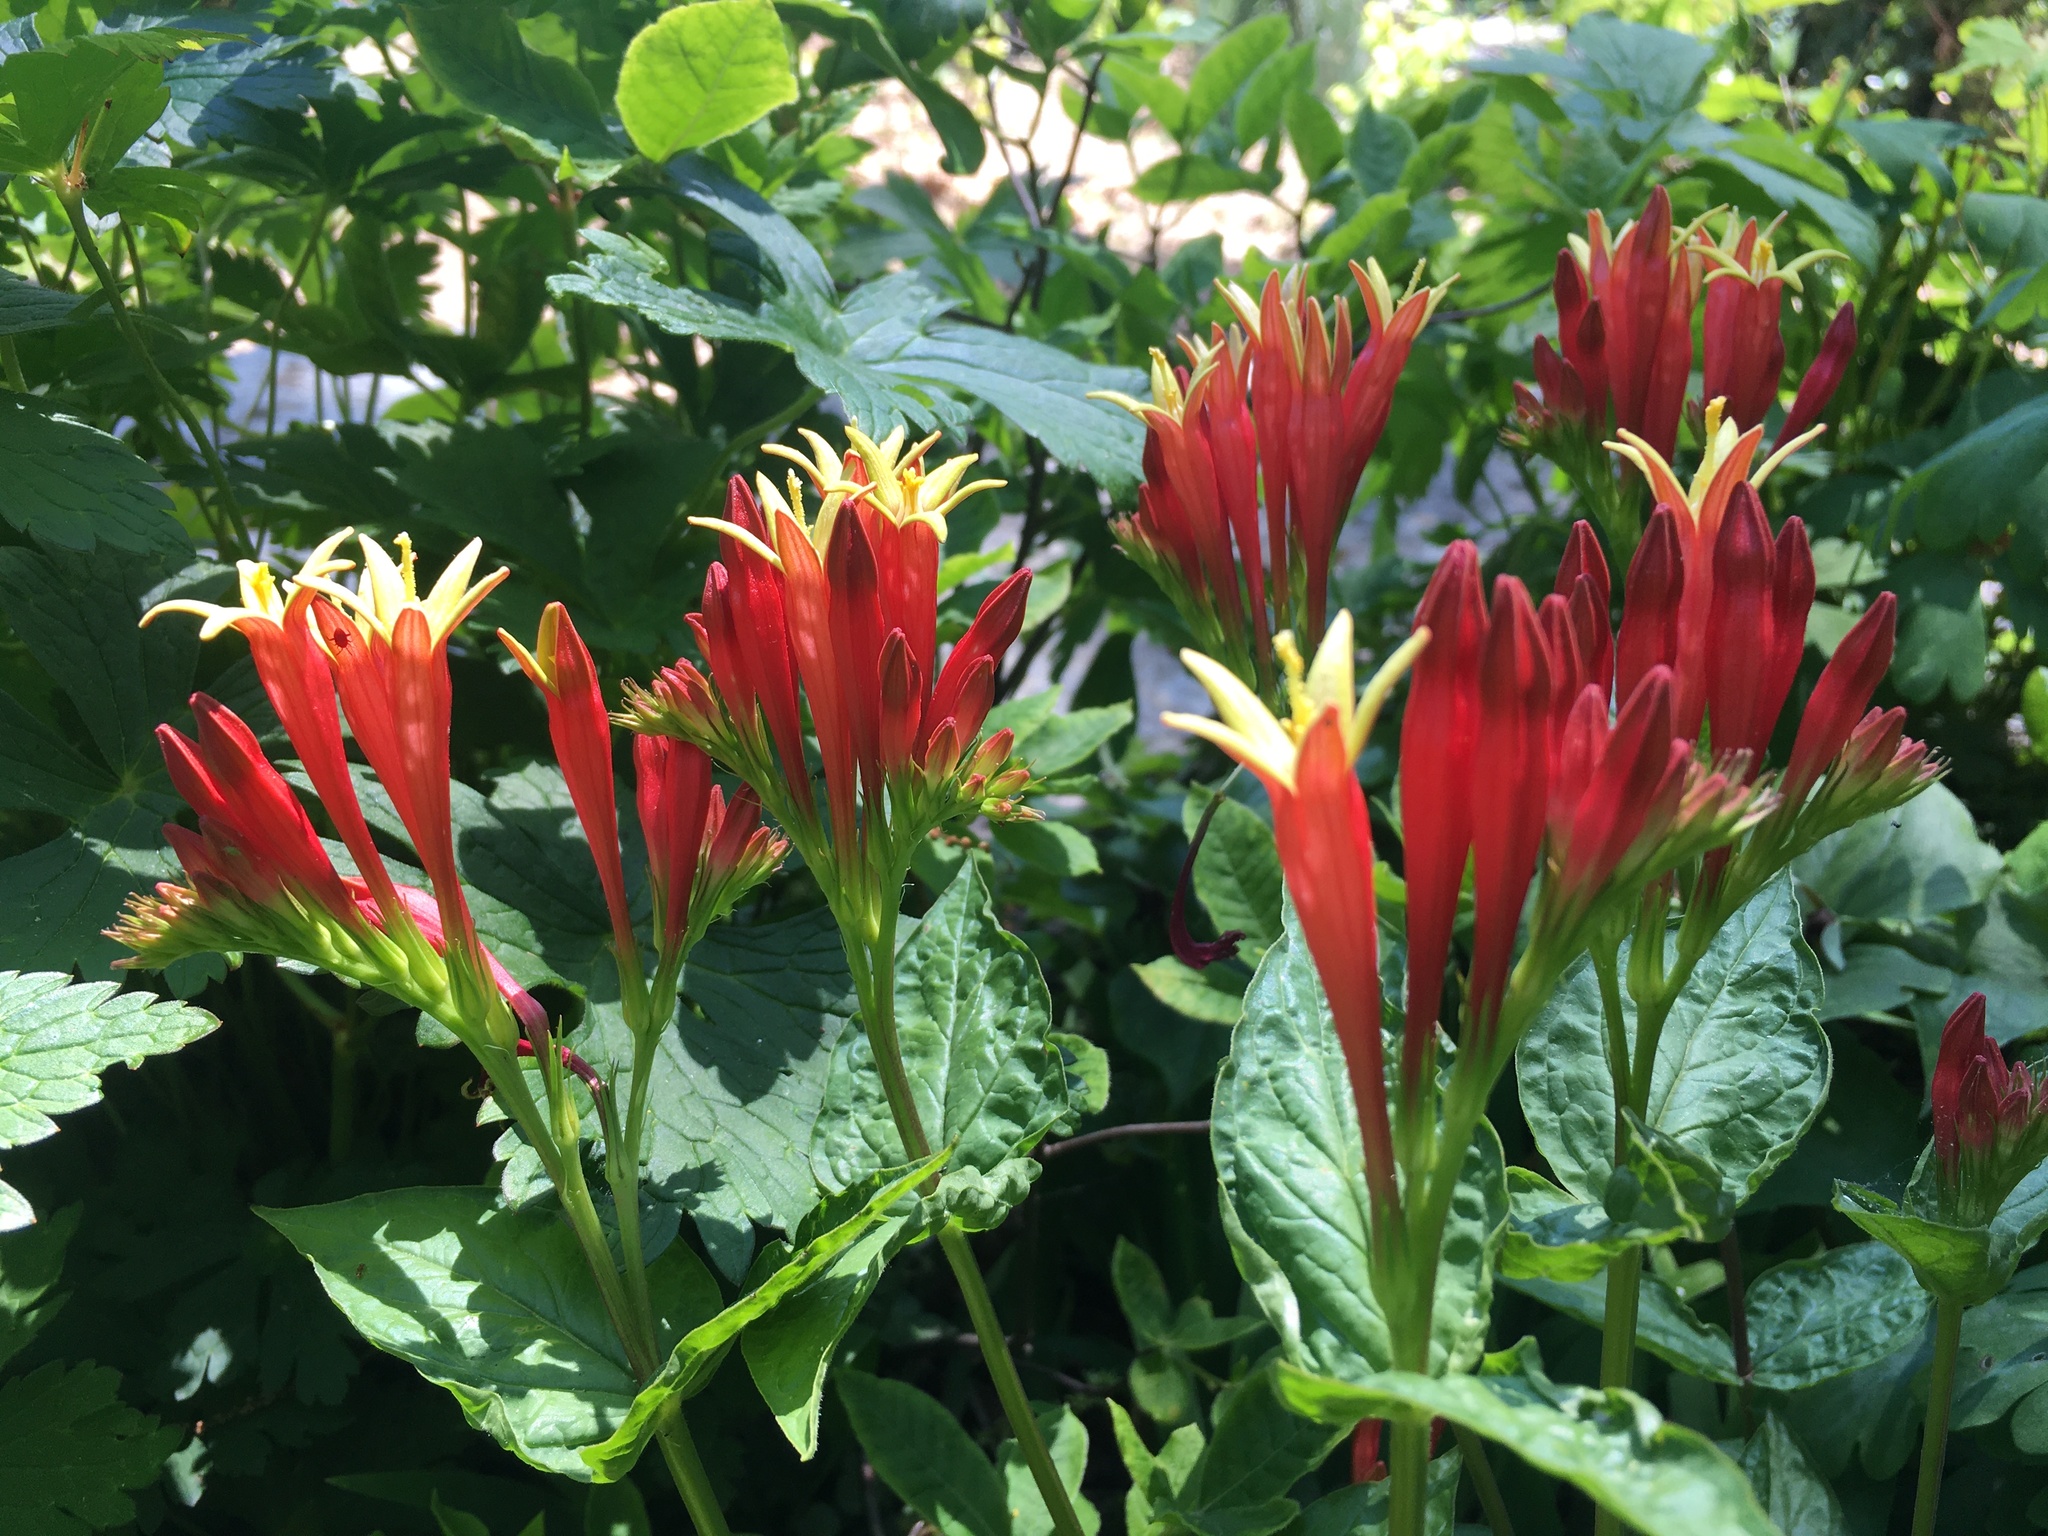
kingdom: Plantae
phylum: Tracheophyta
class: Magnoliopsida
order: Gentianales
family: Loganiaceae
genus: Spigelia
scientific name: Spigelia marilandica
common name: Indian-pink
